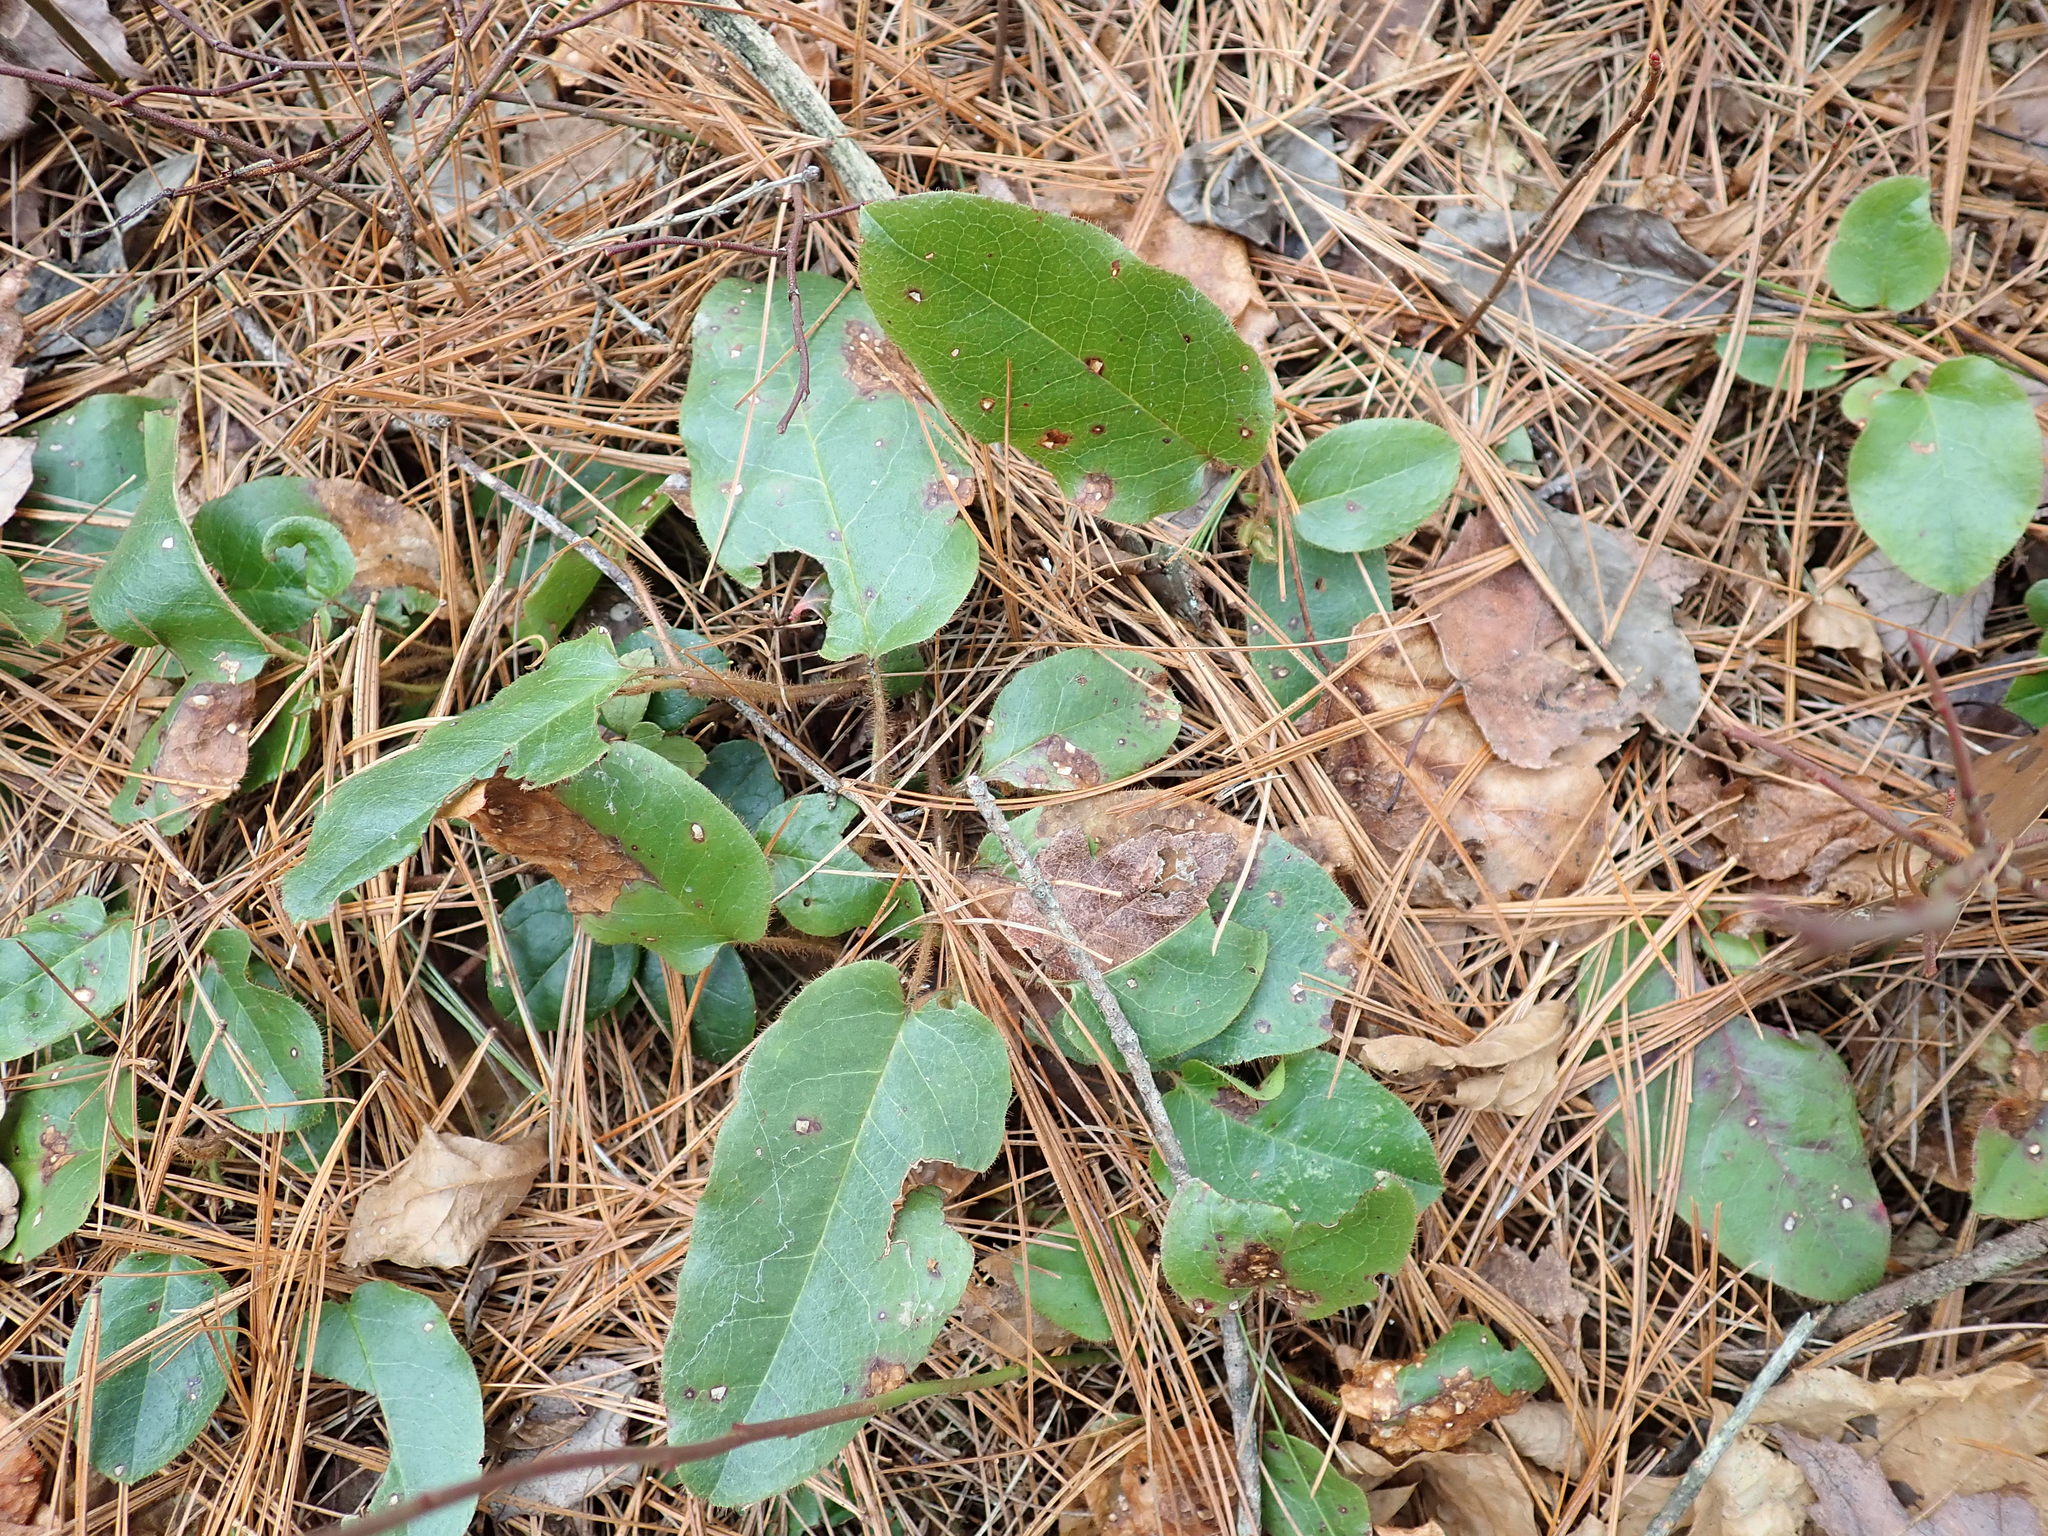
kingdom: Plantae
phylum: Tracheophyta
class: Magnoliopsida
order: Ericales
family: Ericaceae
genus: Epigaea
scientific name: Epigaea repens
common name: Gravelroot
